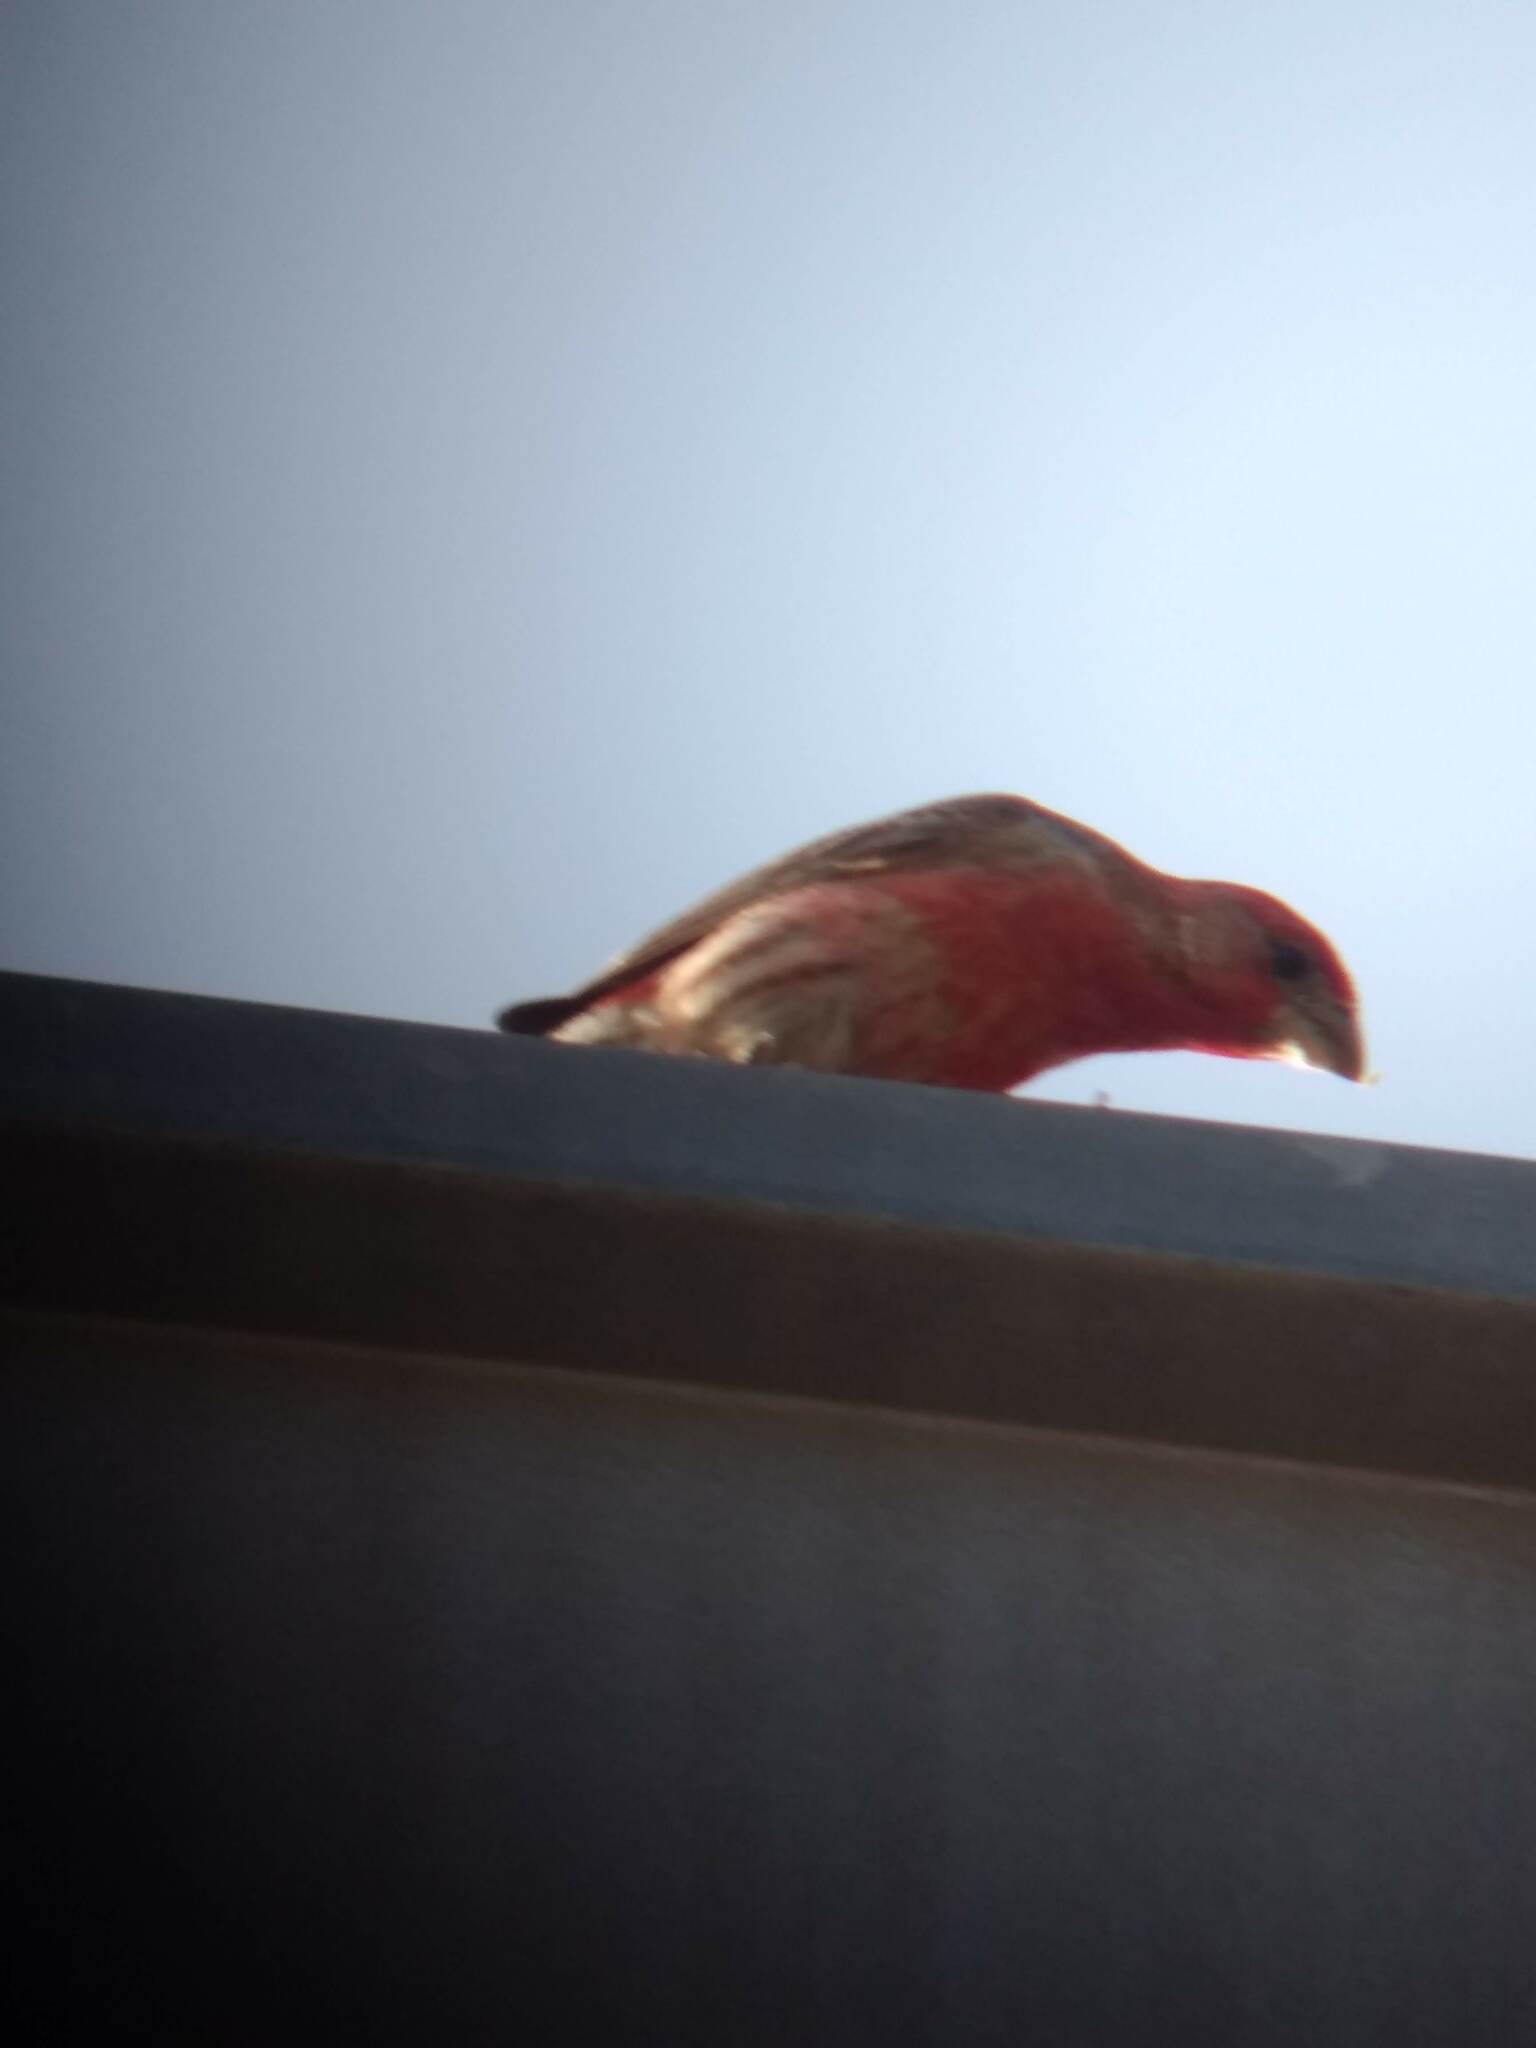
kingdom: Animalia
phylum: Chordata
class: Aves
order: Passeriformes
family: Fringillidae
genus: Haemorhous
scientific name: Haemorhous mexicanus
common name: House finch
